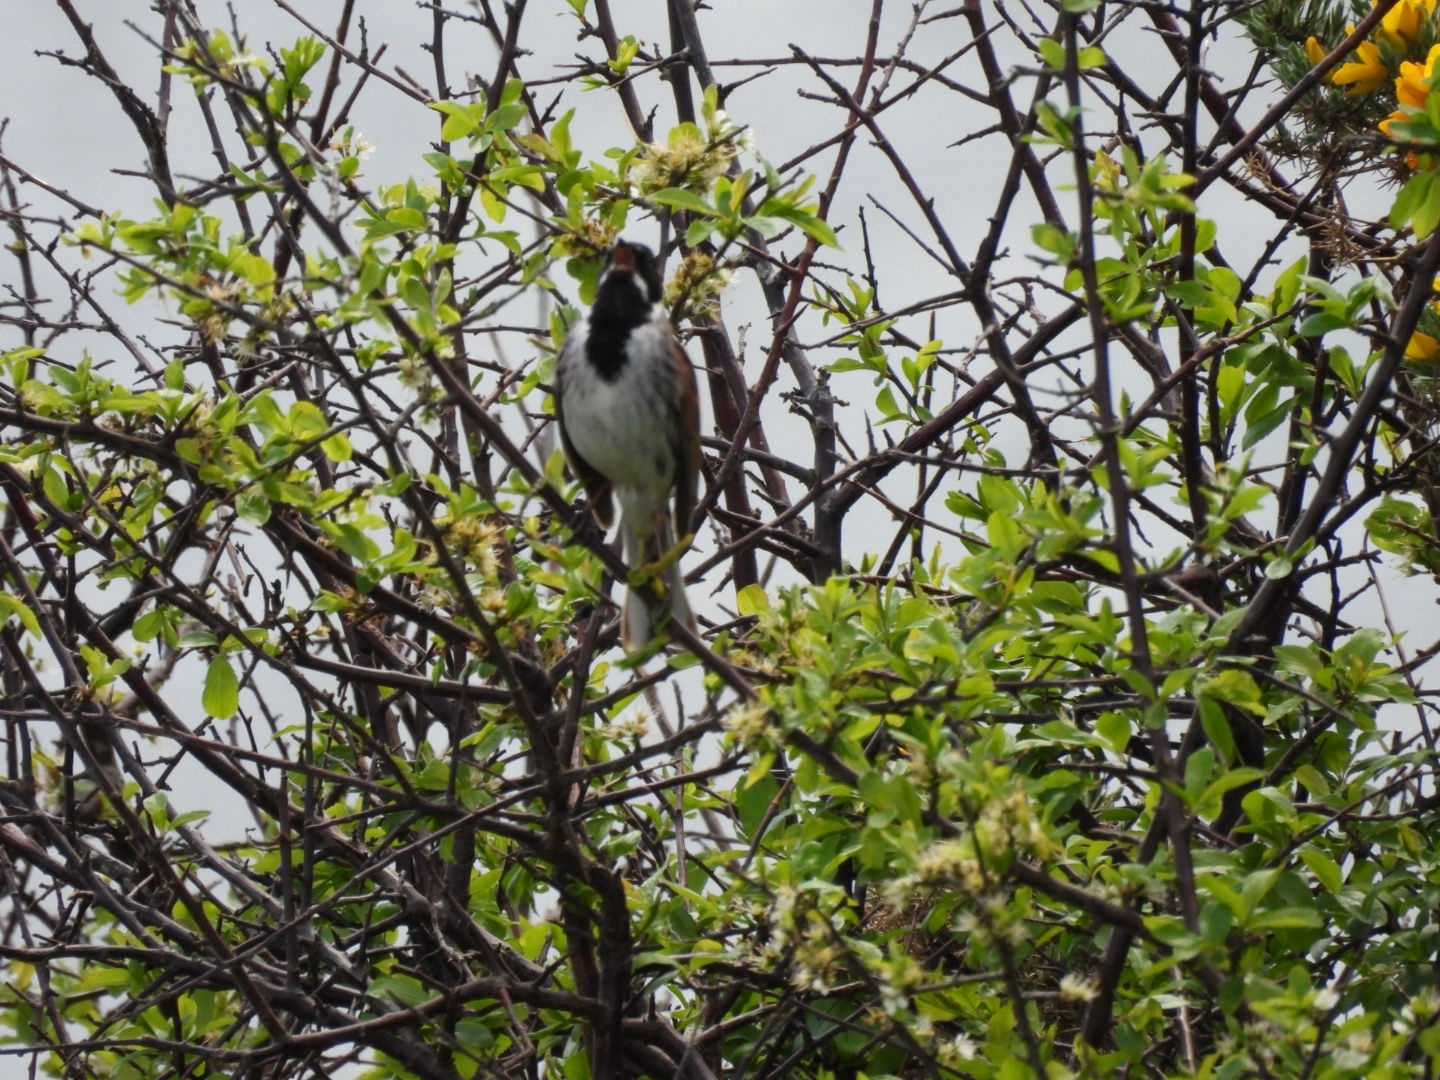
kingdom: Animalia
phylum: Chordata
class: Aves
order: Passeriformes
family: Emberizidae
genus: Emberiza
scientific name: Emberiza schoeniclus
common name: Reed bunting
